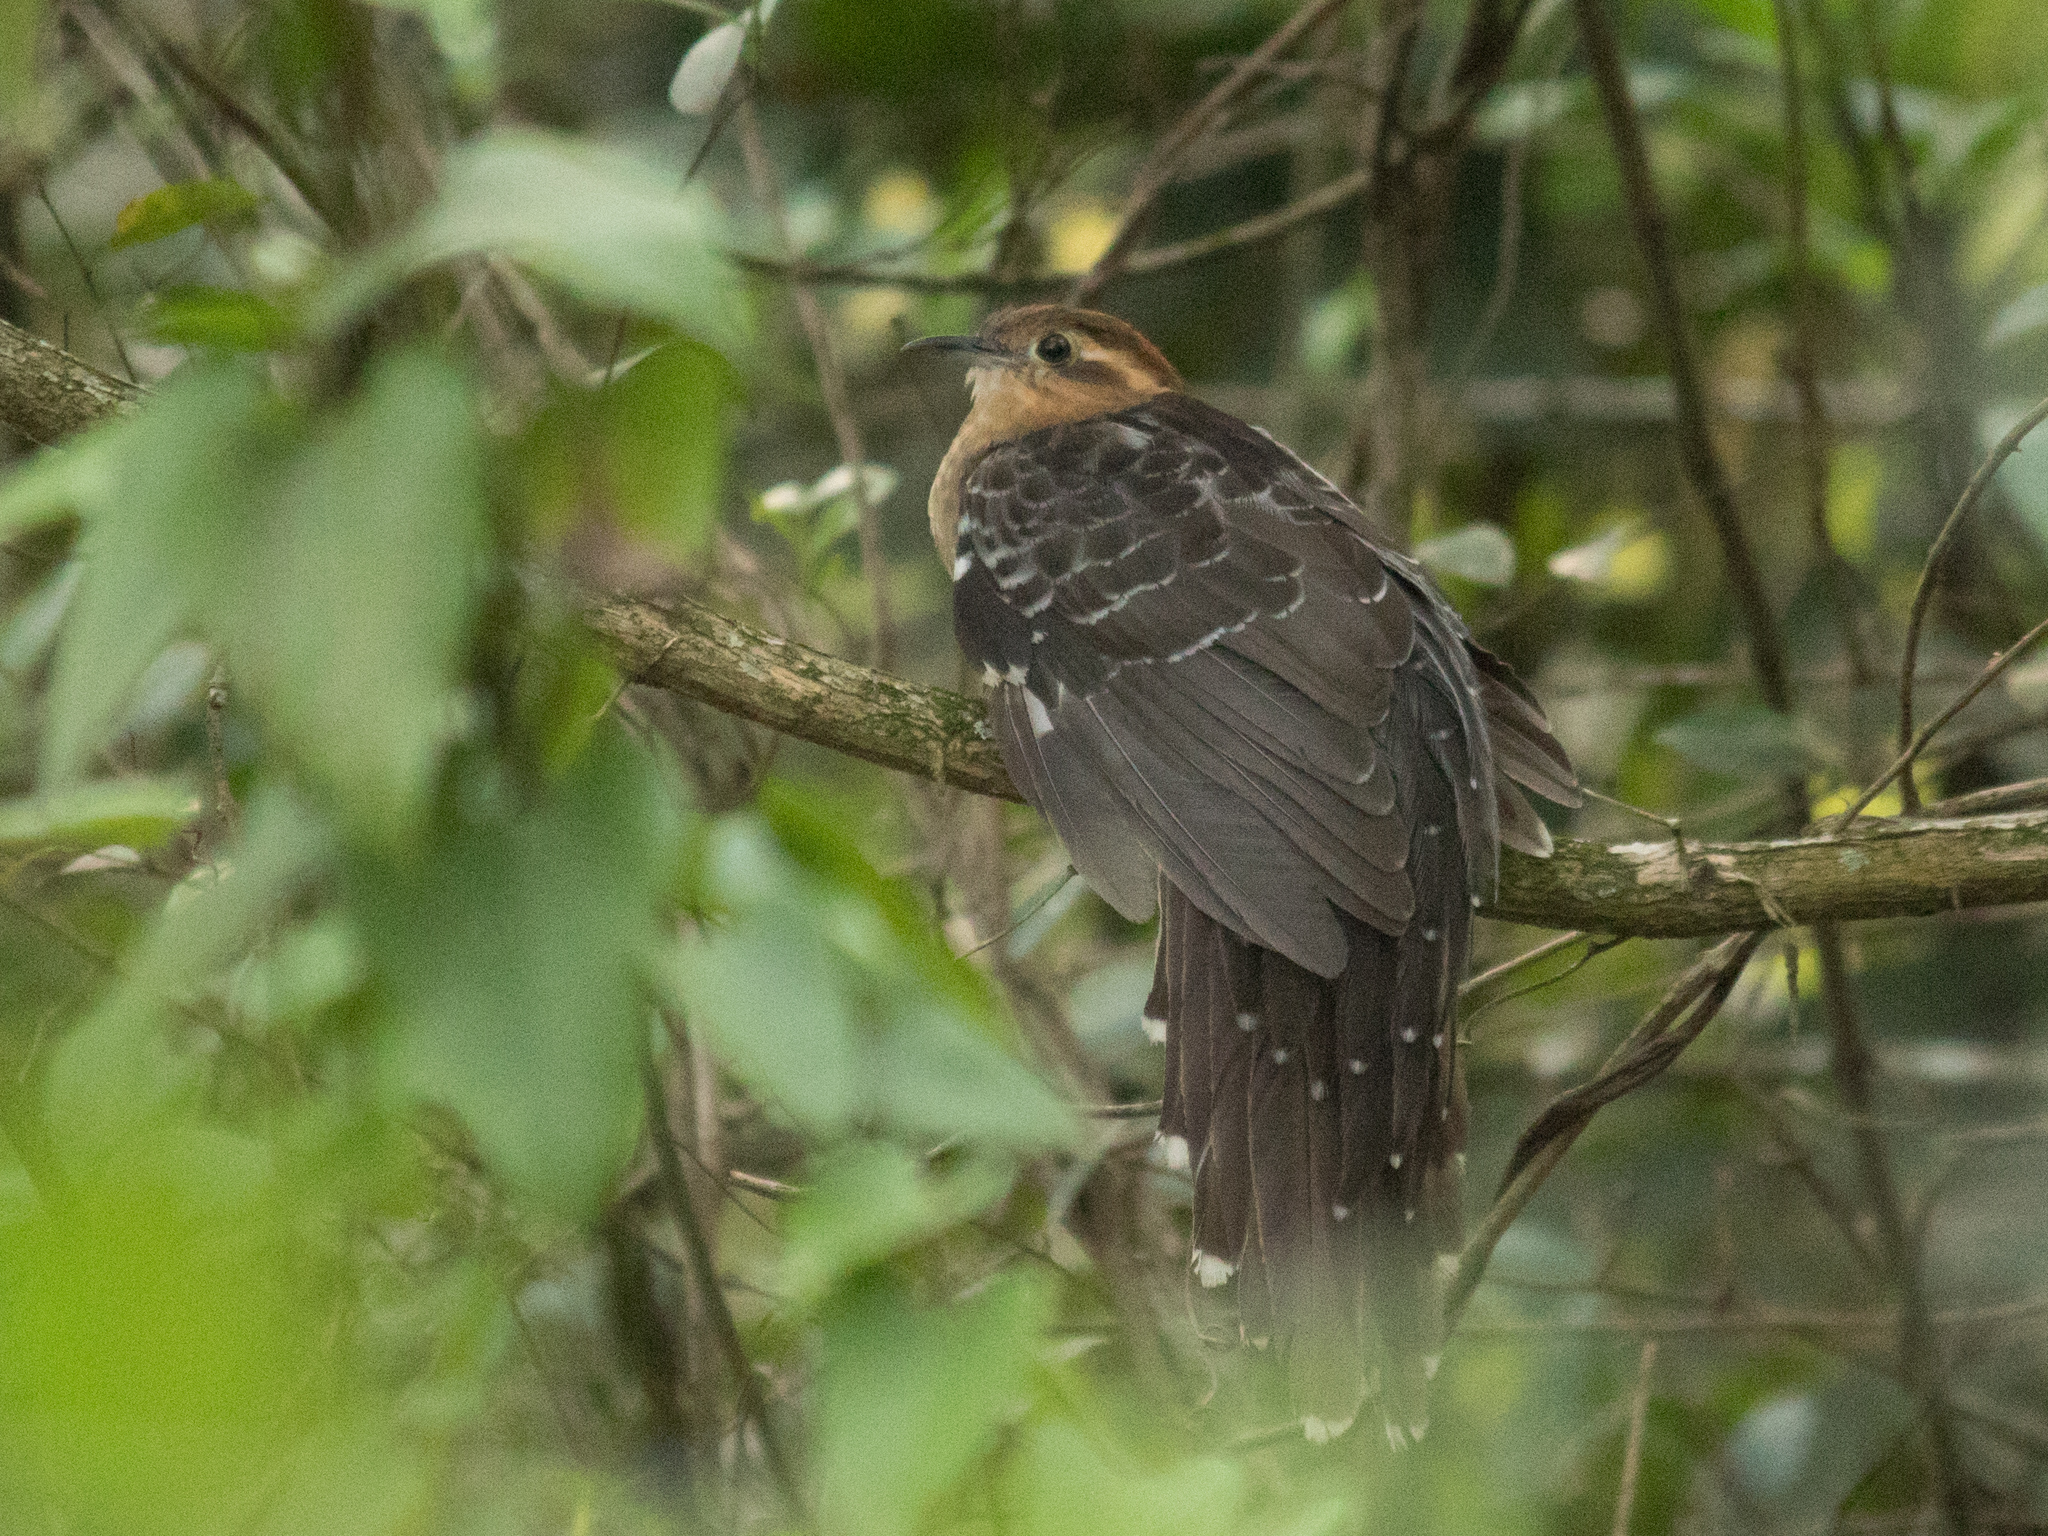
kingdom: Animalia
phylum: Chordata
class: Aves
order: Cuculiformes
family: Cuculidae
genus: Dromococcyx
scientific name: Dromococcyx pavoninus
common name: Pavonine cuckoo
